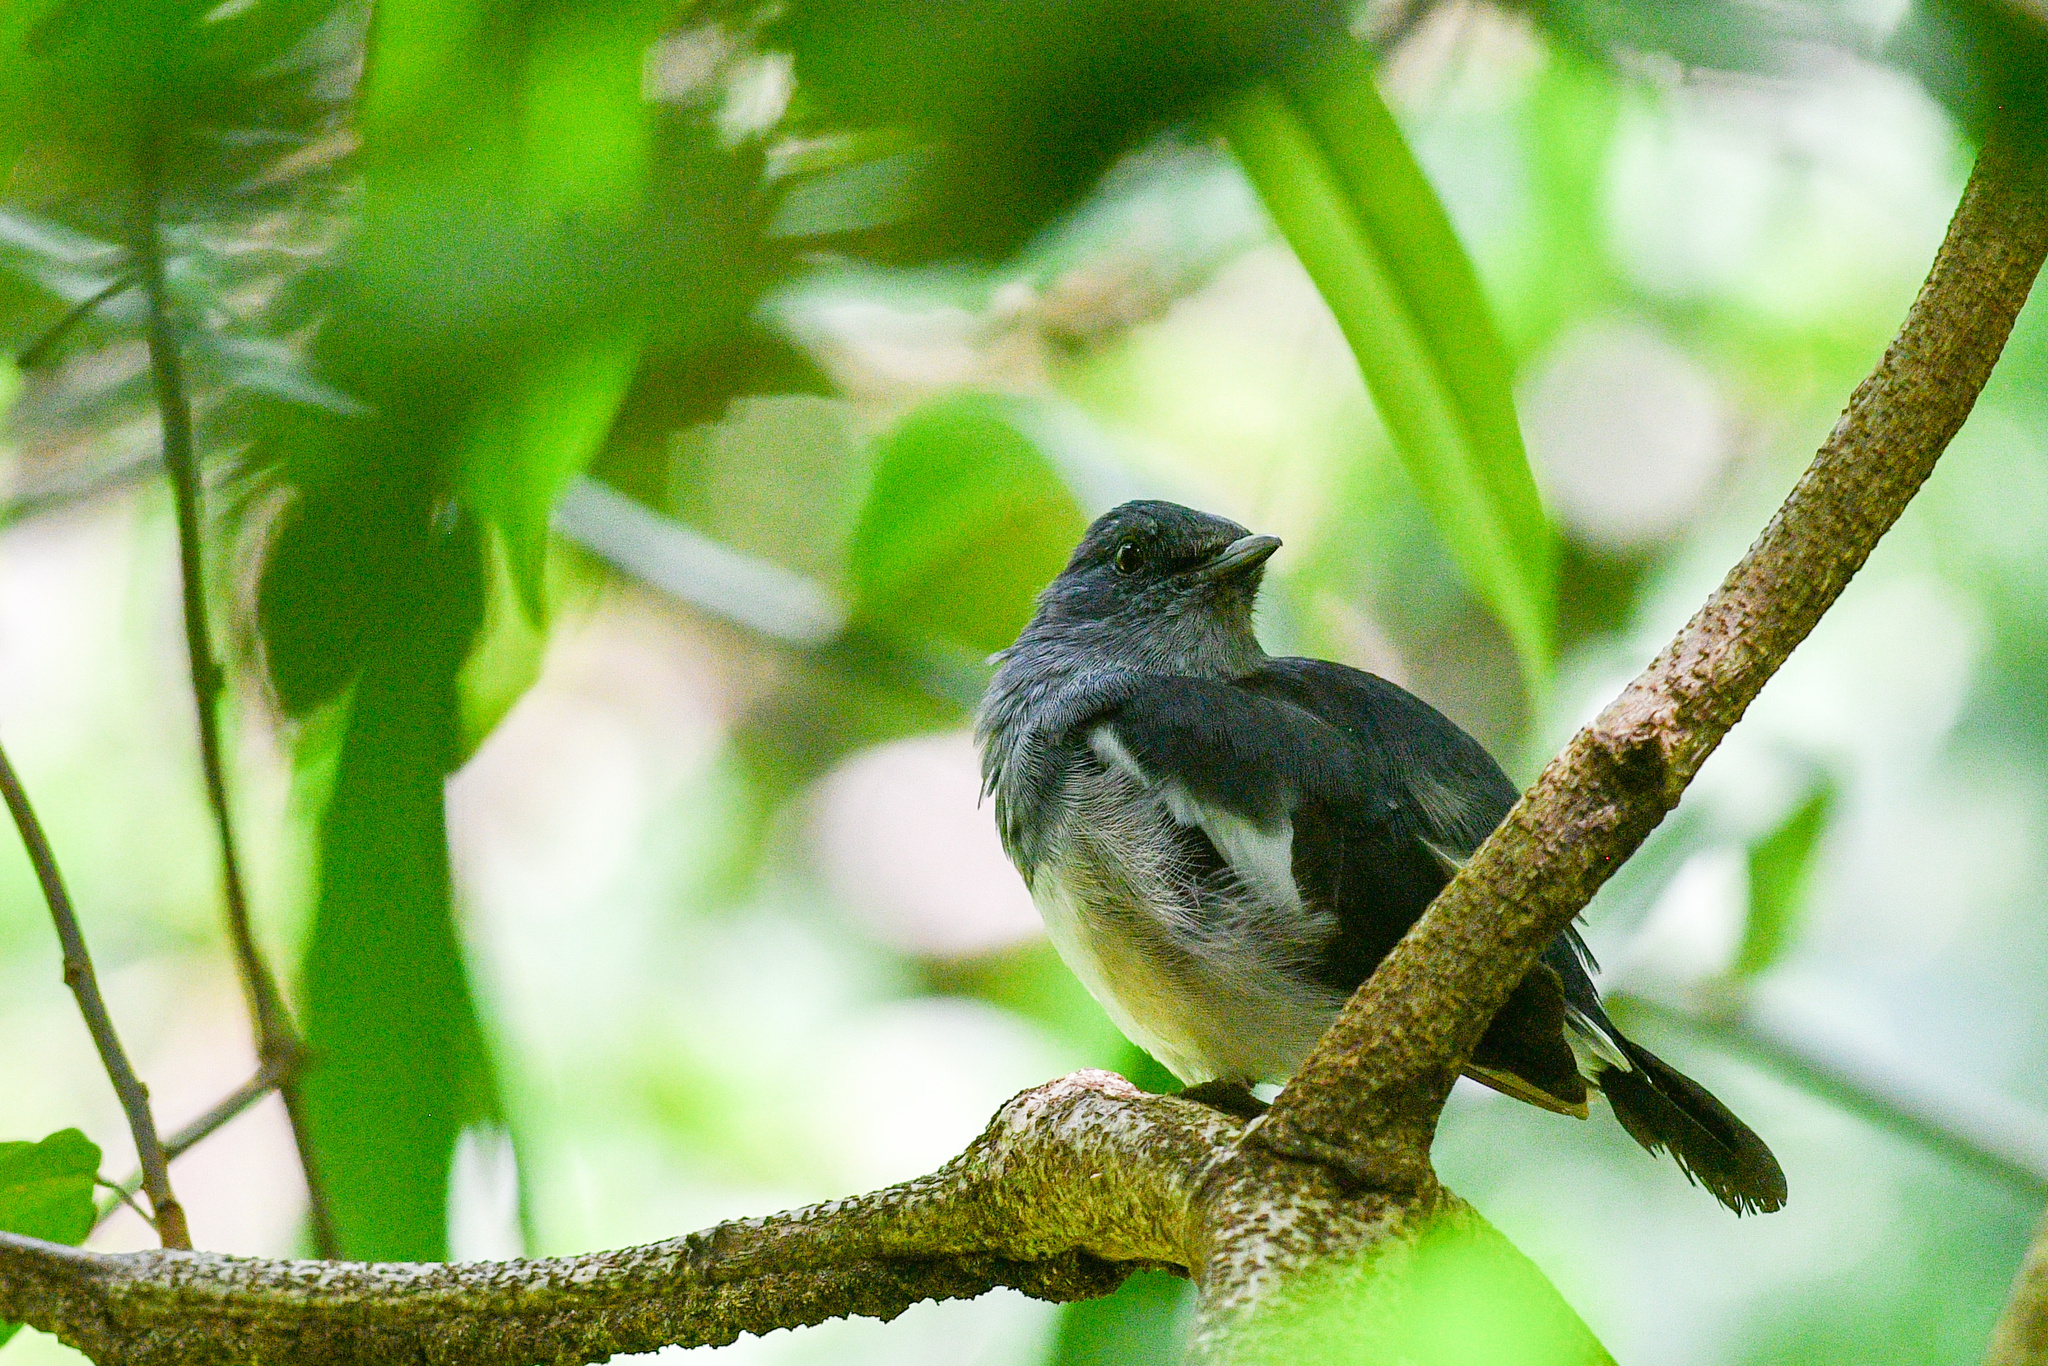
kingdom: Animalia
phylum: Chordata
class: Aves
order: Passeriformes
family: Muscicapidae
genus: Copsychus
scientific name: Copsychus saularis
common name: Oriental magpie-robin
